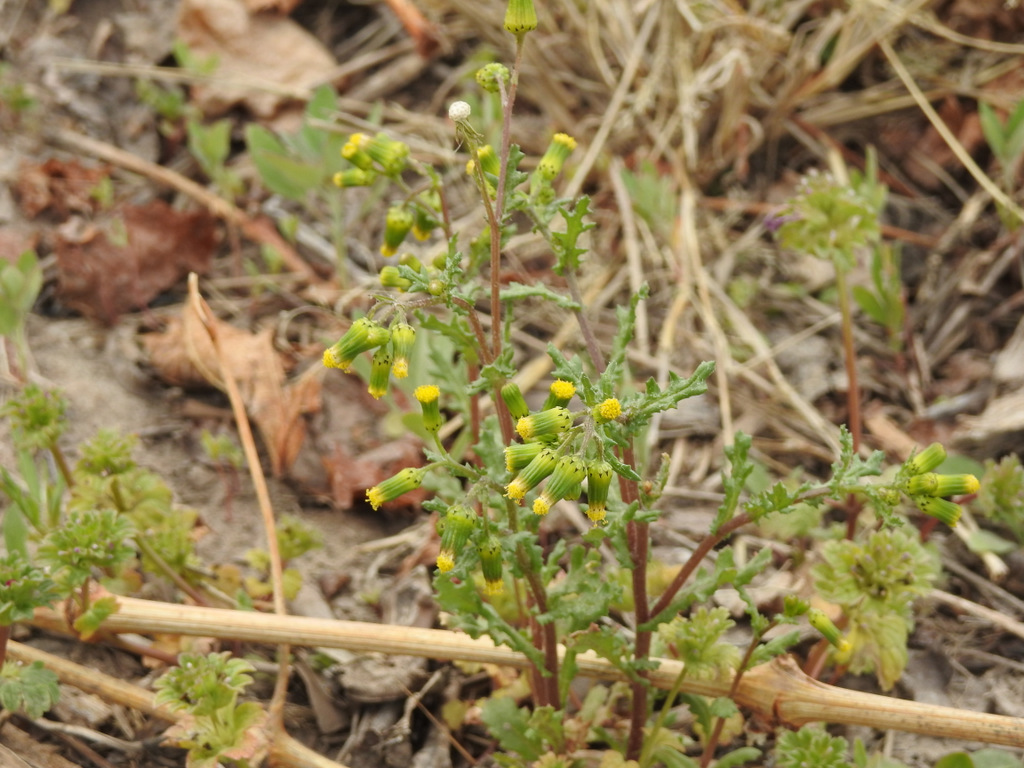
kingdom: Plantae
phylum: Tracheophyta
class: Magnoliopsida
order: Asterales
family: Asteraceae
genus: Senecio
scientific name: Senecio vulgaris
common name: Old-man-in-the-spring
